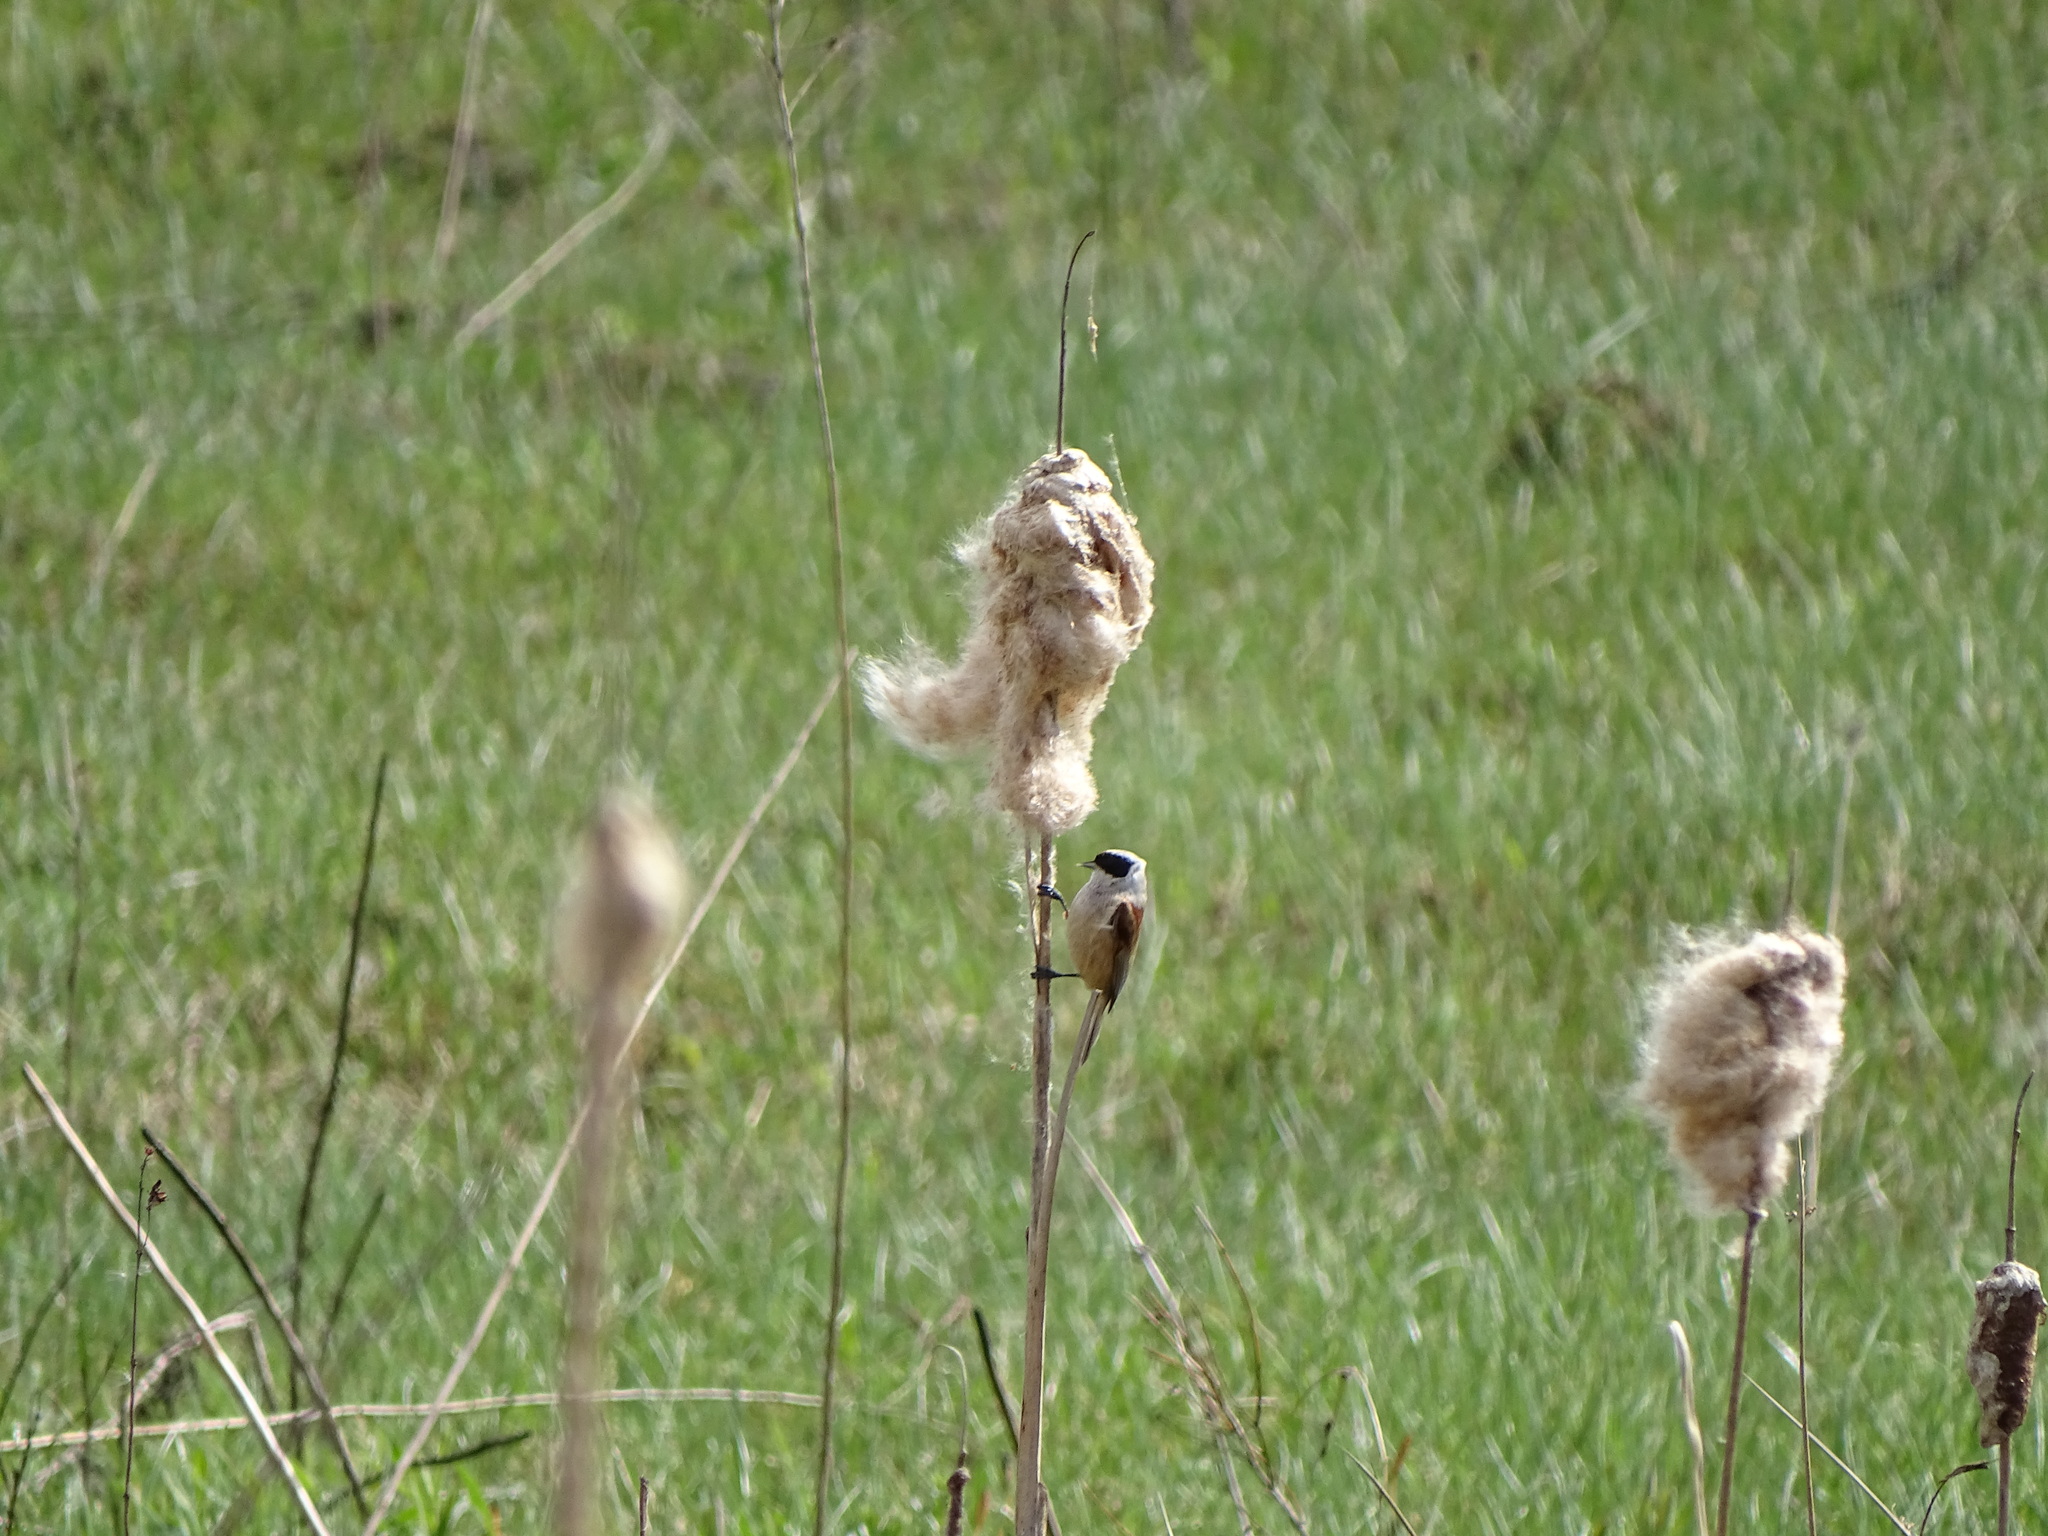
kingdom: Animalia
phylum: Chordata
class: Aves
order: Passeriformes
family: Remizidae
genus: Remiz
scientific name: Remiz pendulinus
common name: Eurasian penduline tit
